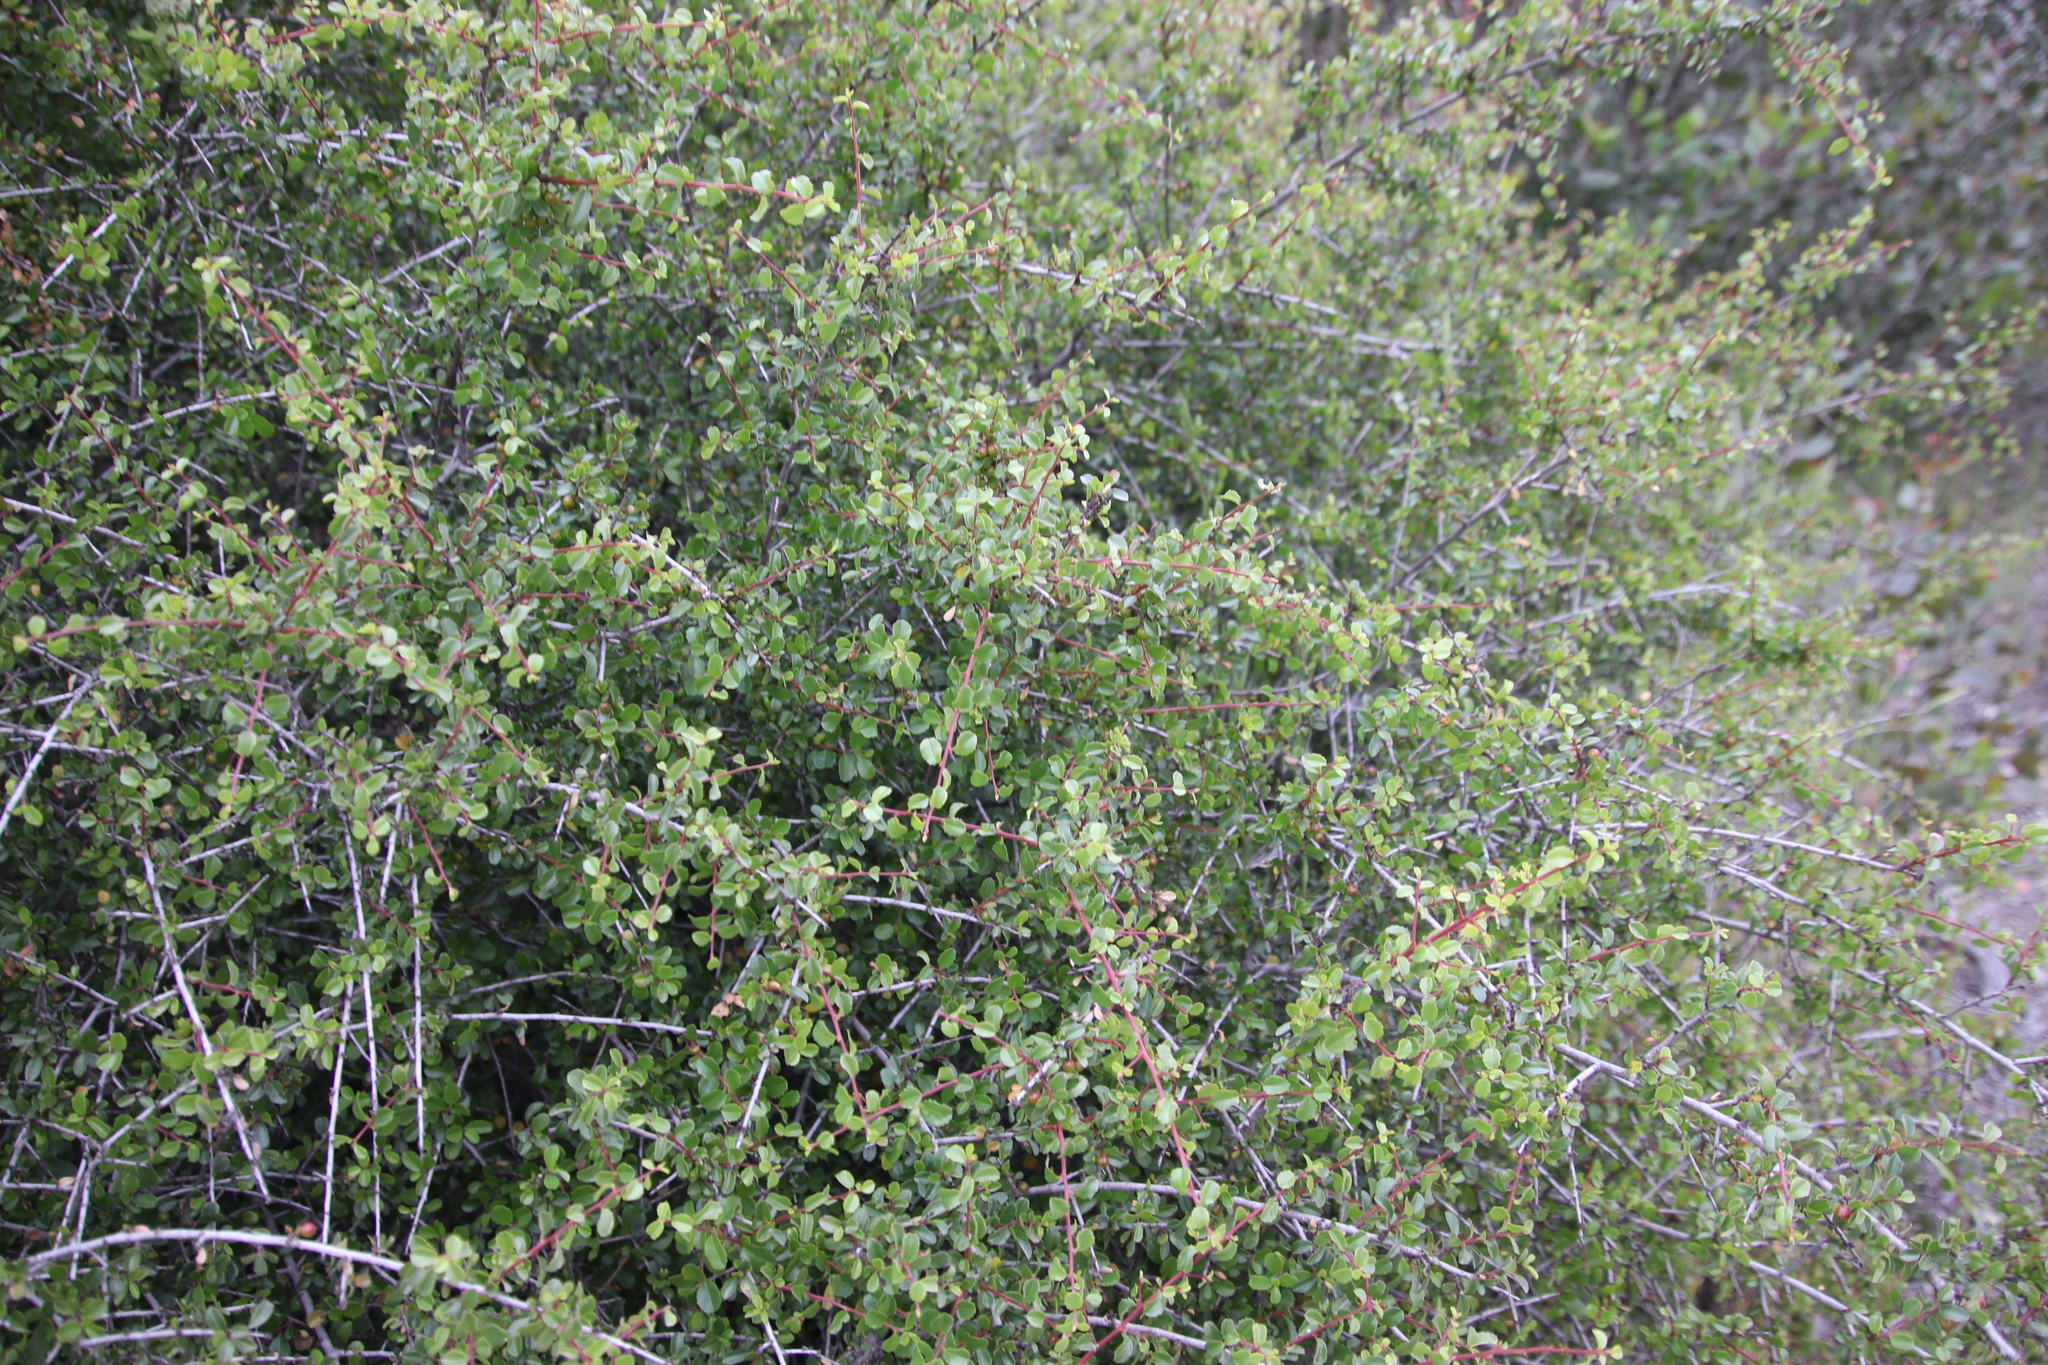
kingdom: Plantae
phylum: Tracheophyta
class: Magnoliopsida
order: Rosales
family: Rhamnaceae
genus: Endotropis
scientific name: Endotropis crocea
